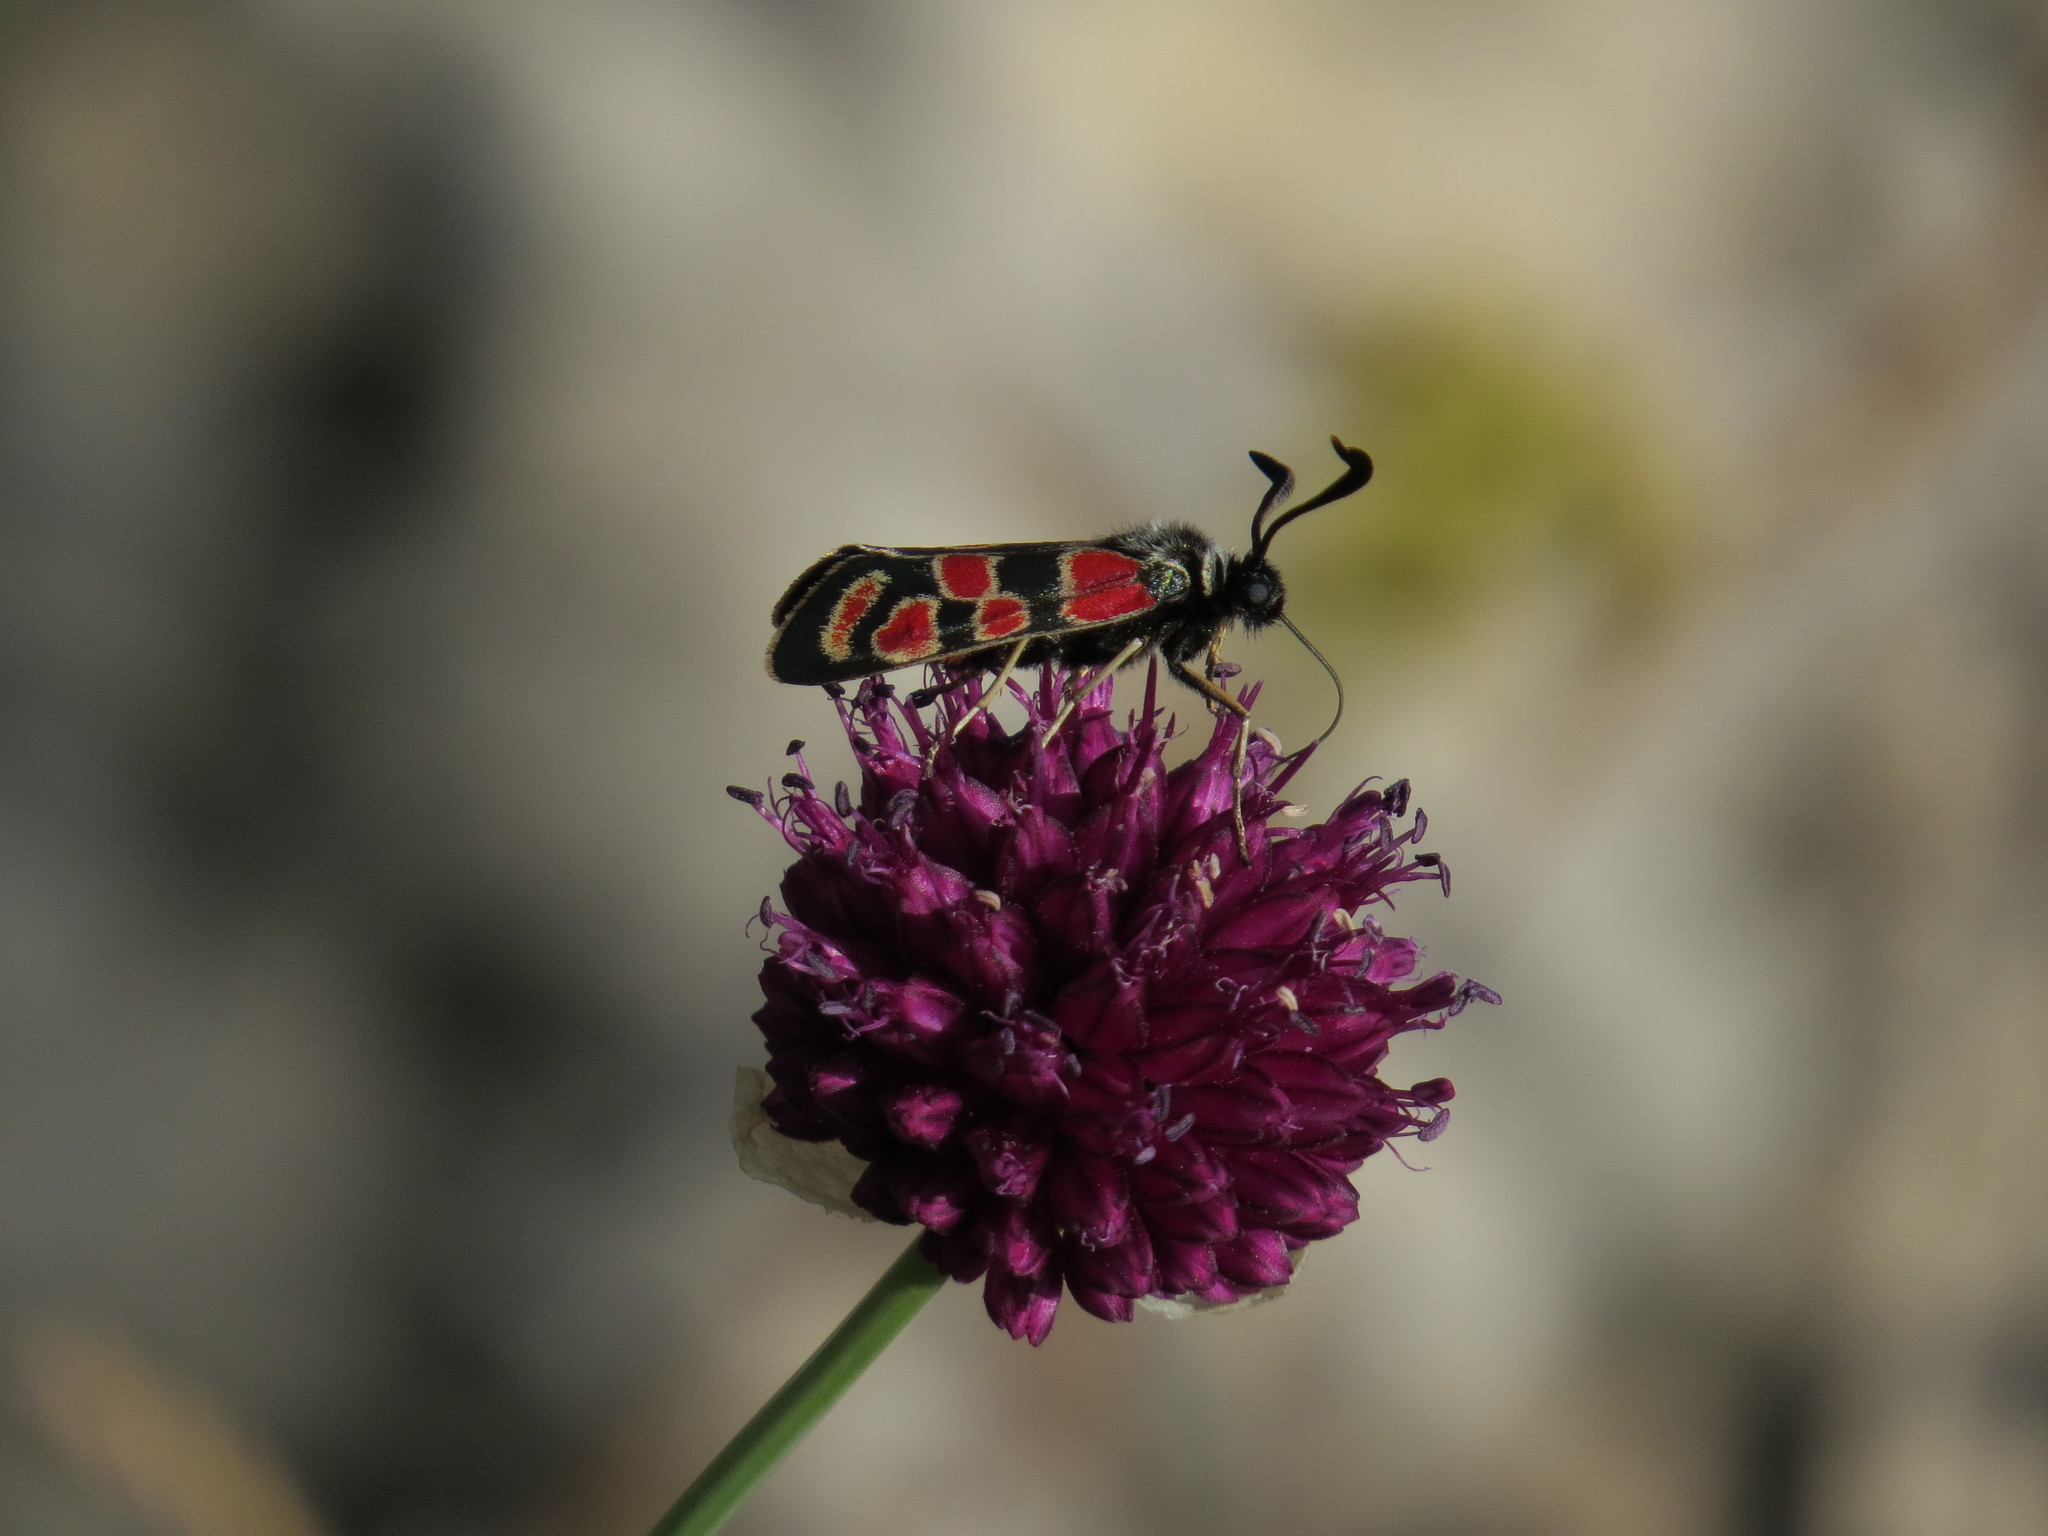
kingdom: Animalia
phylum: Arthropoda
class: Insecta
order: Lepidoptera
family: Zygaenidae
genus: Zygaena
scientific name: Zygaena carniolica
